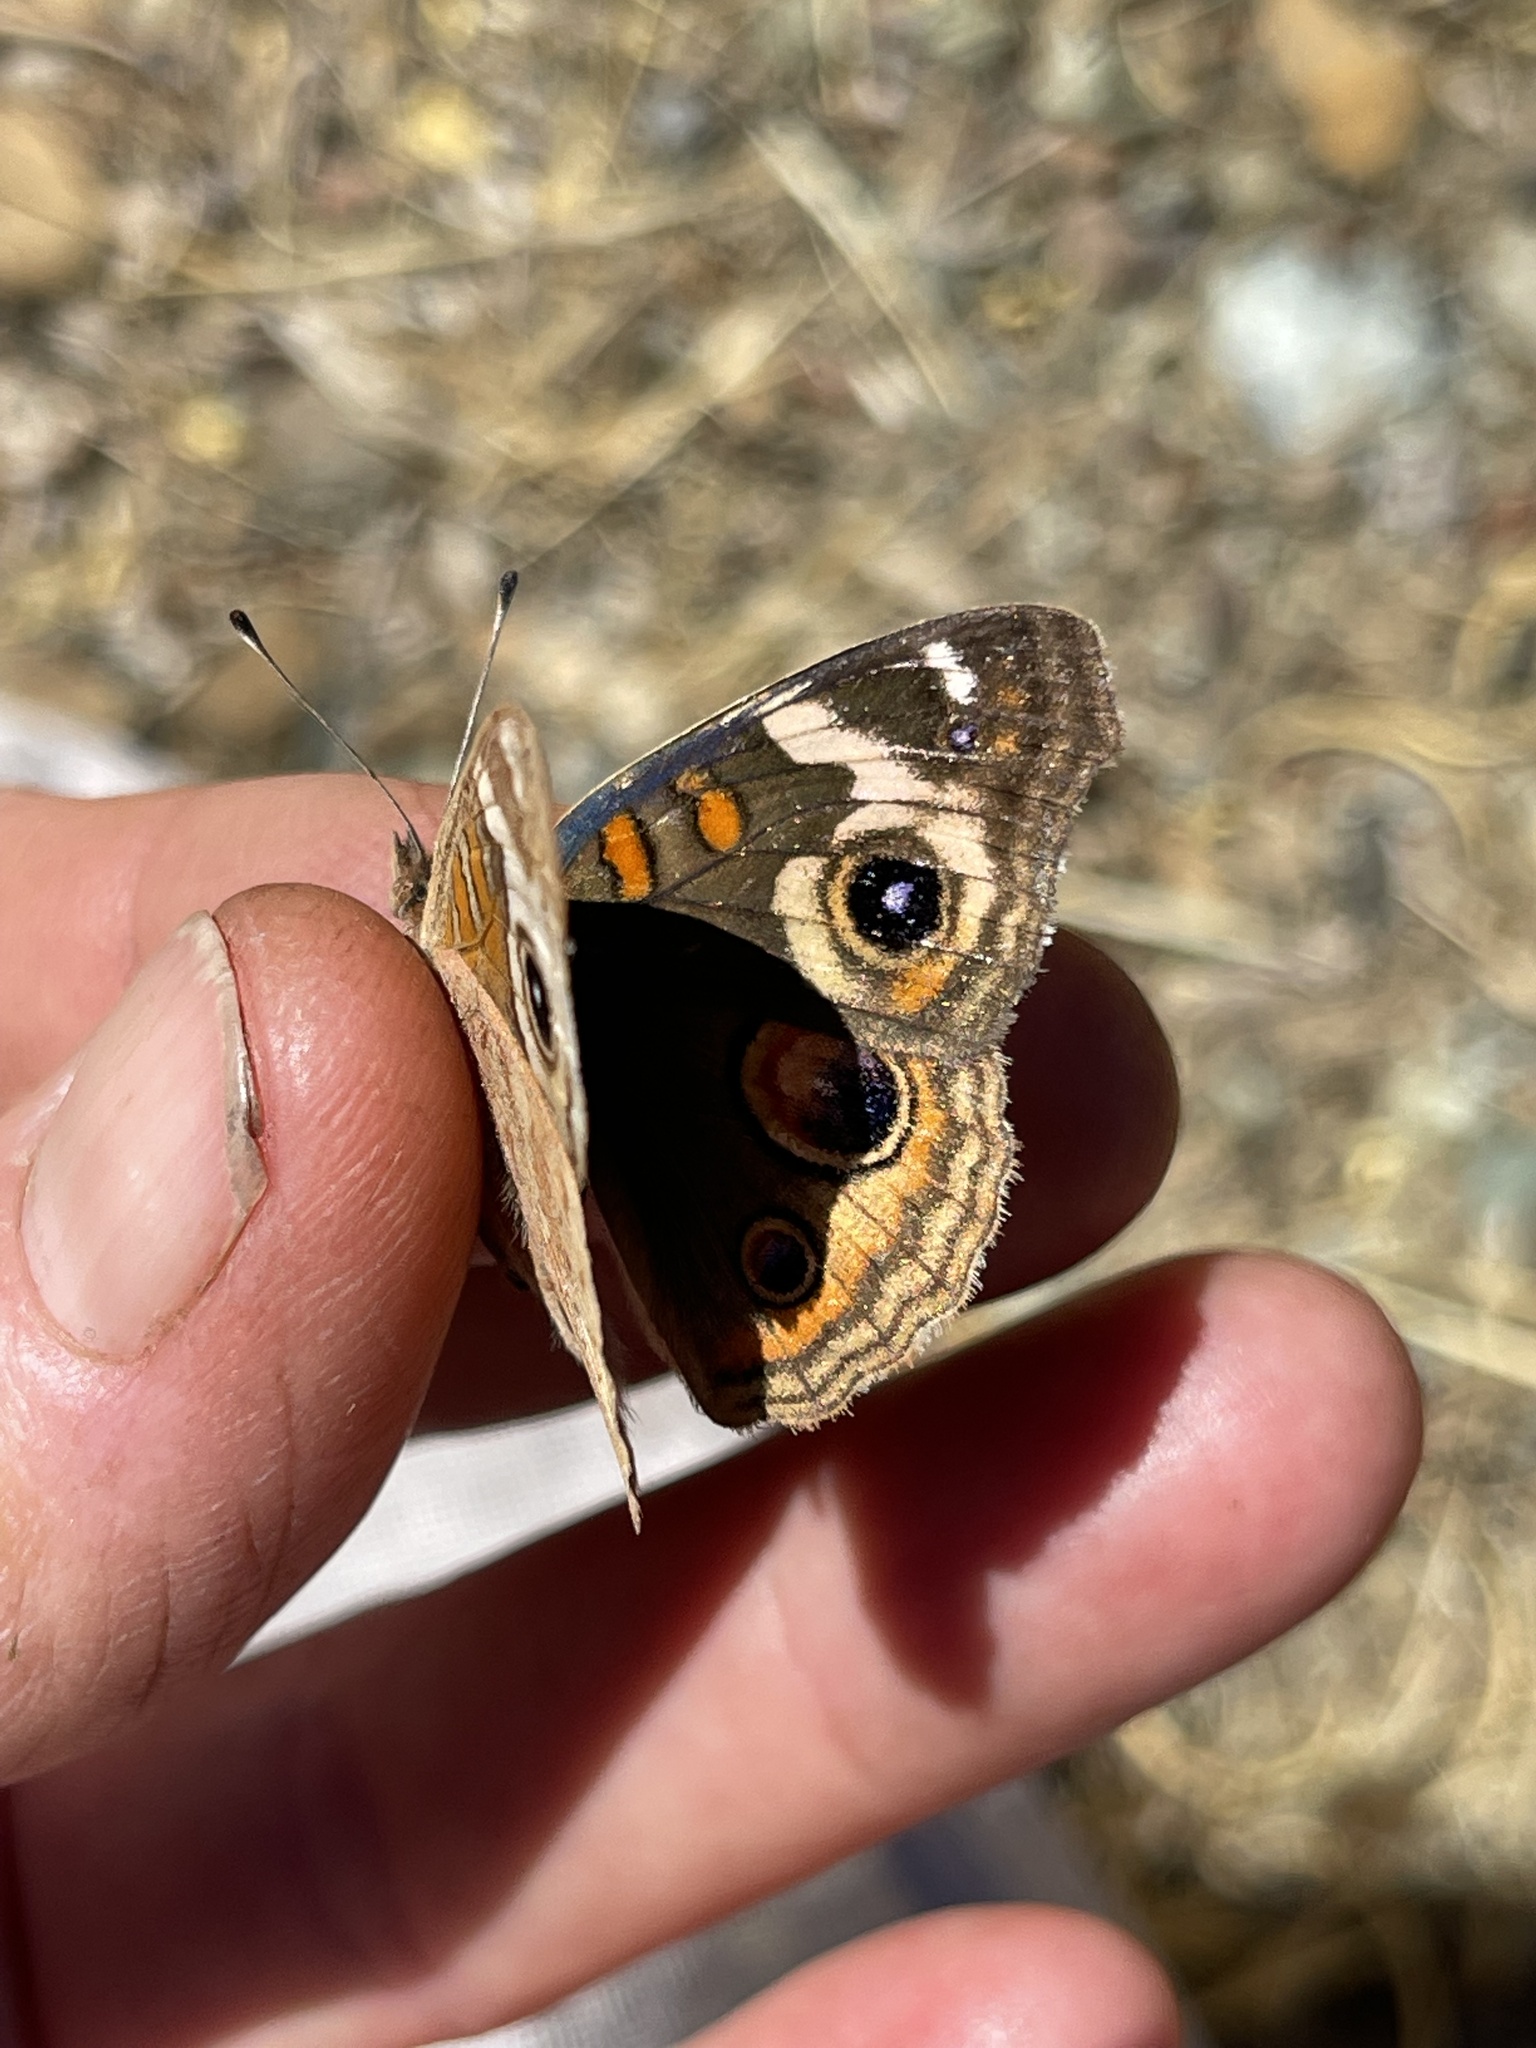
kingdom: Animalia
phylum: Arthropoda
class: Insecta
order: Lepidoptera
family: Nymphalidae
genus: Junonia
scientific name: Junonia grisea
